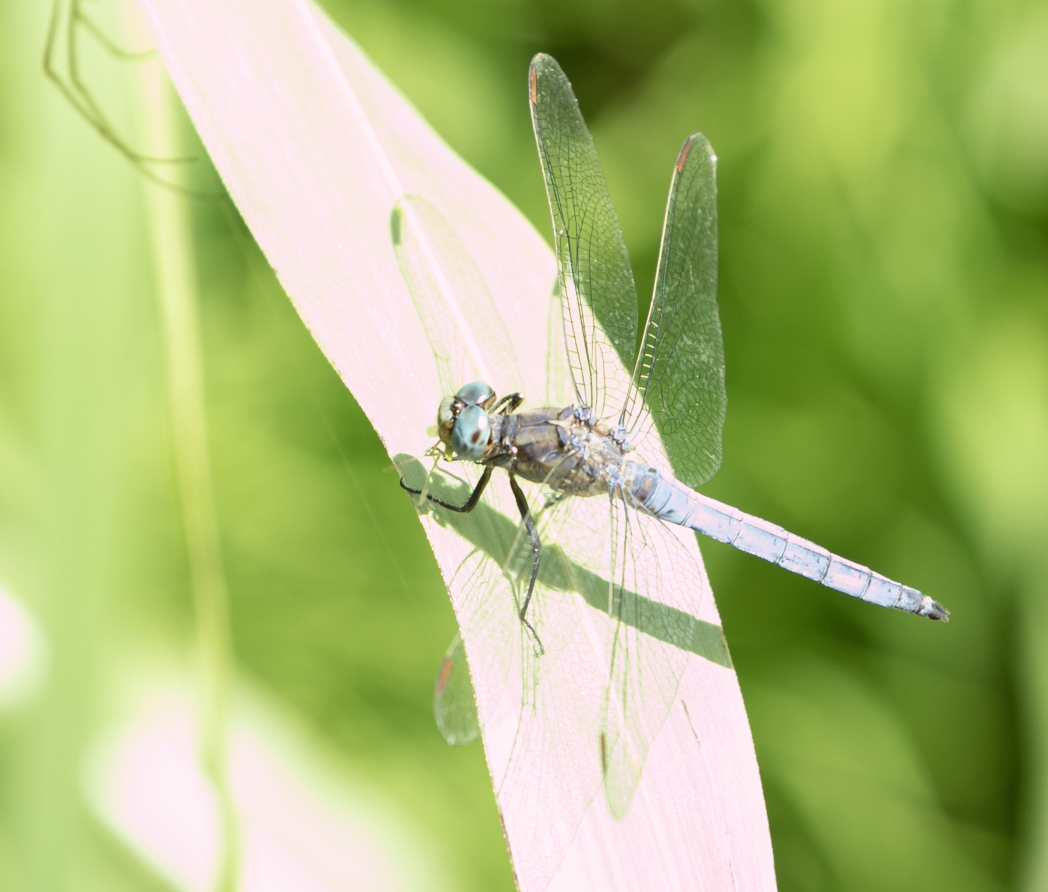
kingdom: Animalia
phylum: Arthropoda
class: Insecta
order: Odonata
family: Libellulidae
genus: Orthetrum
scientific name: Orthetrum coerulescens
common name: Keeled skimmer
